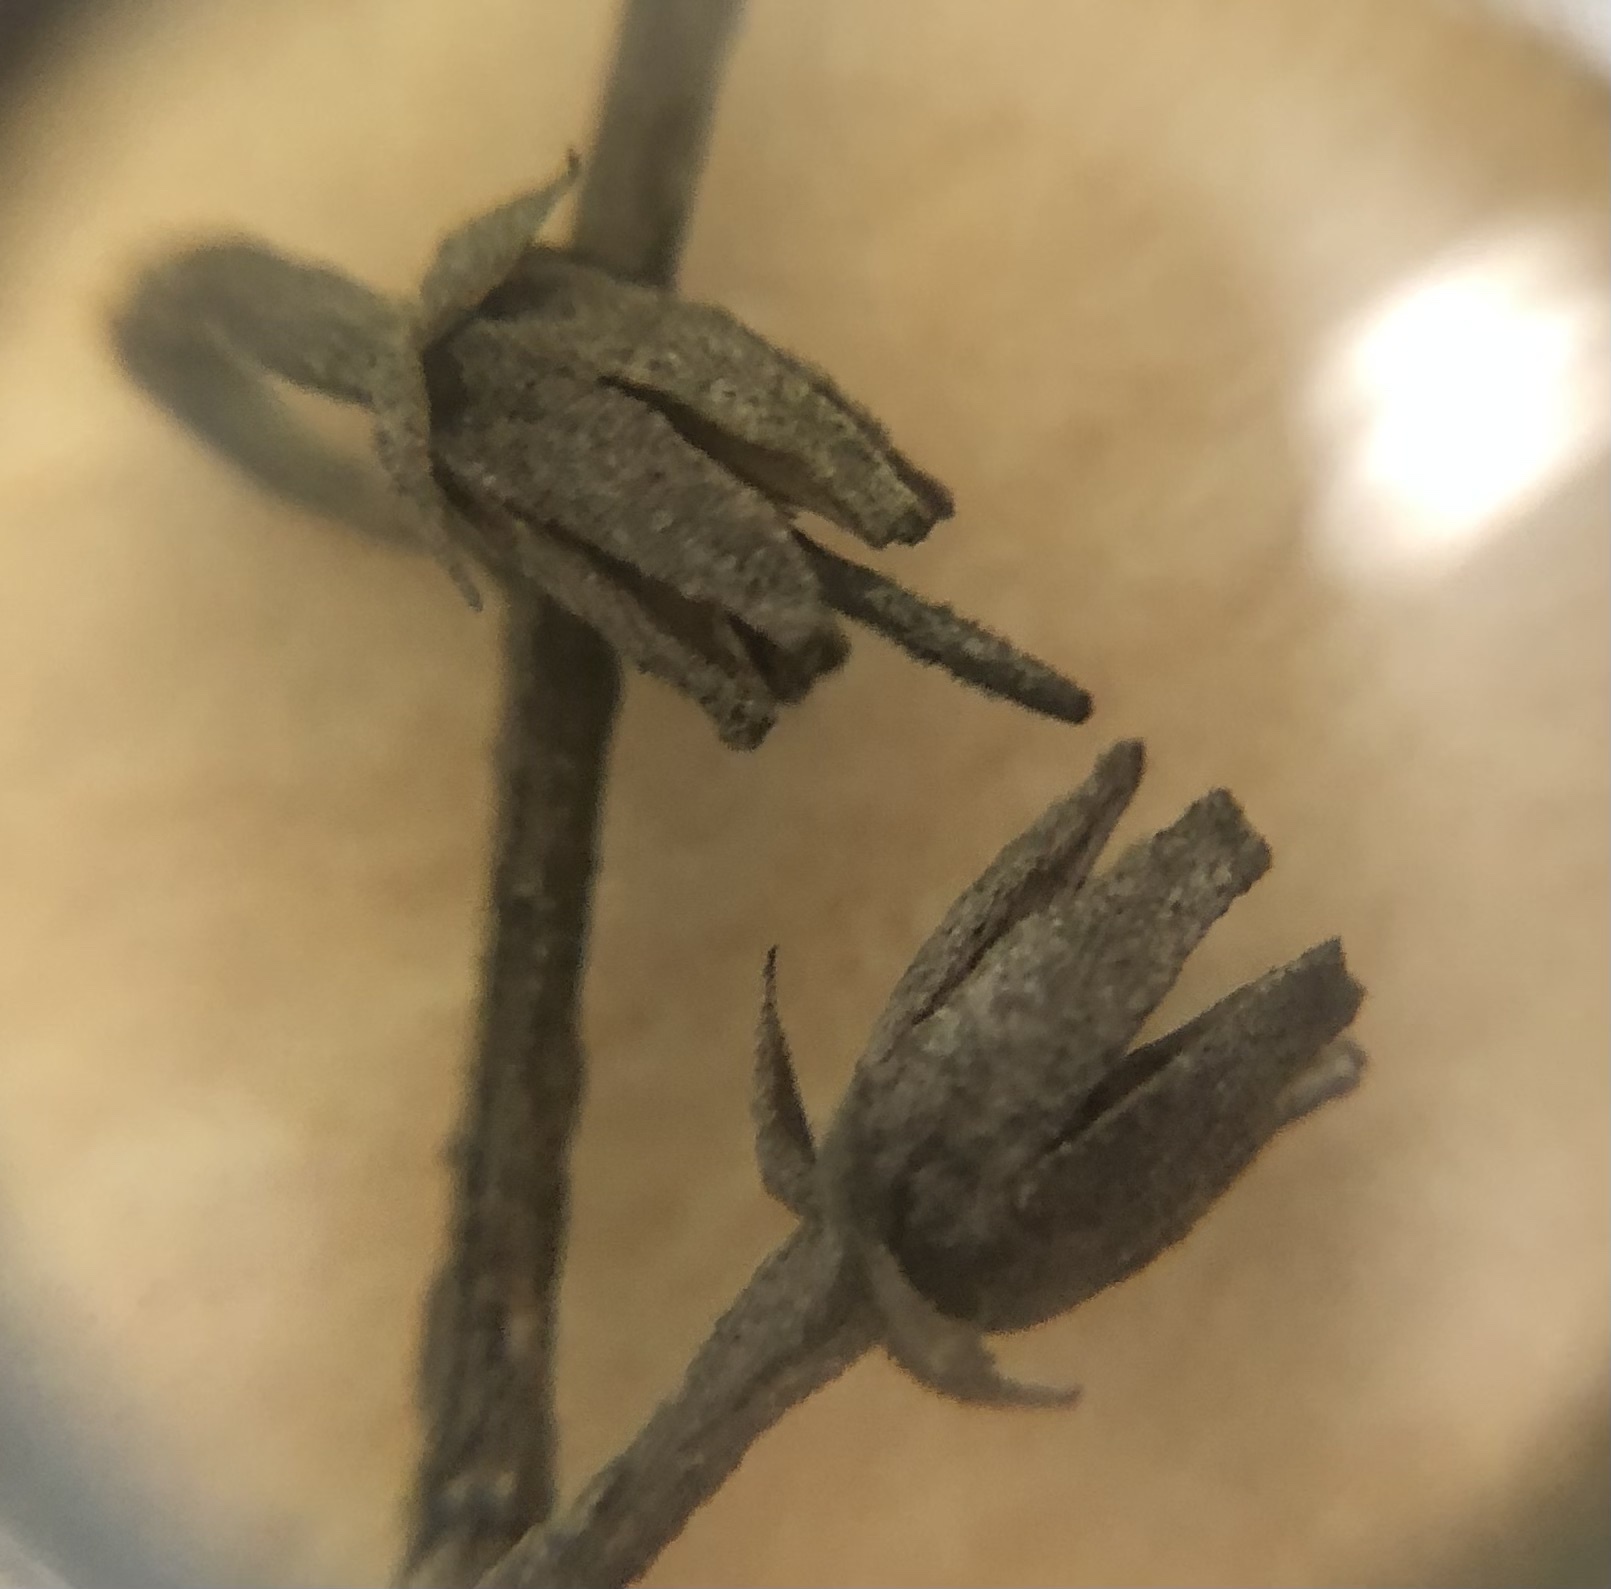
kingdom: Plantae
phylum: Tracheophyta
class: Magnoliopsida
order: Ericales
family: Ericaceae
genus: Oxydendrum
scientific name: Oxydendrum arboreum
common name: Sourwood
